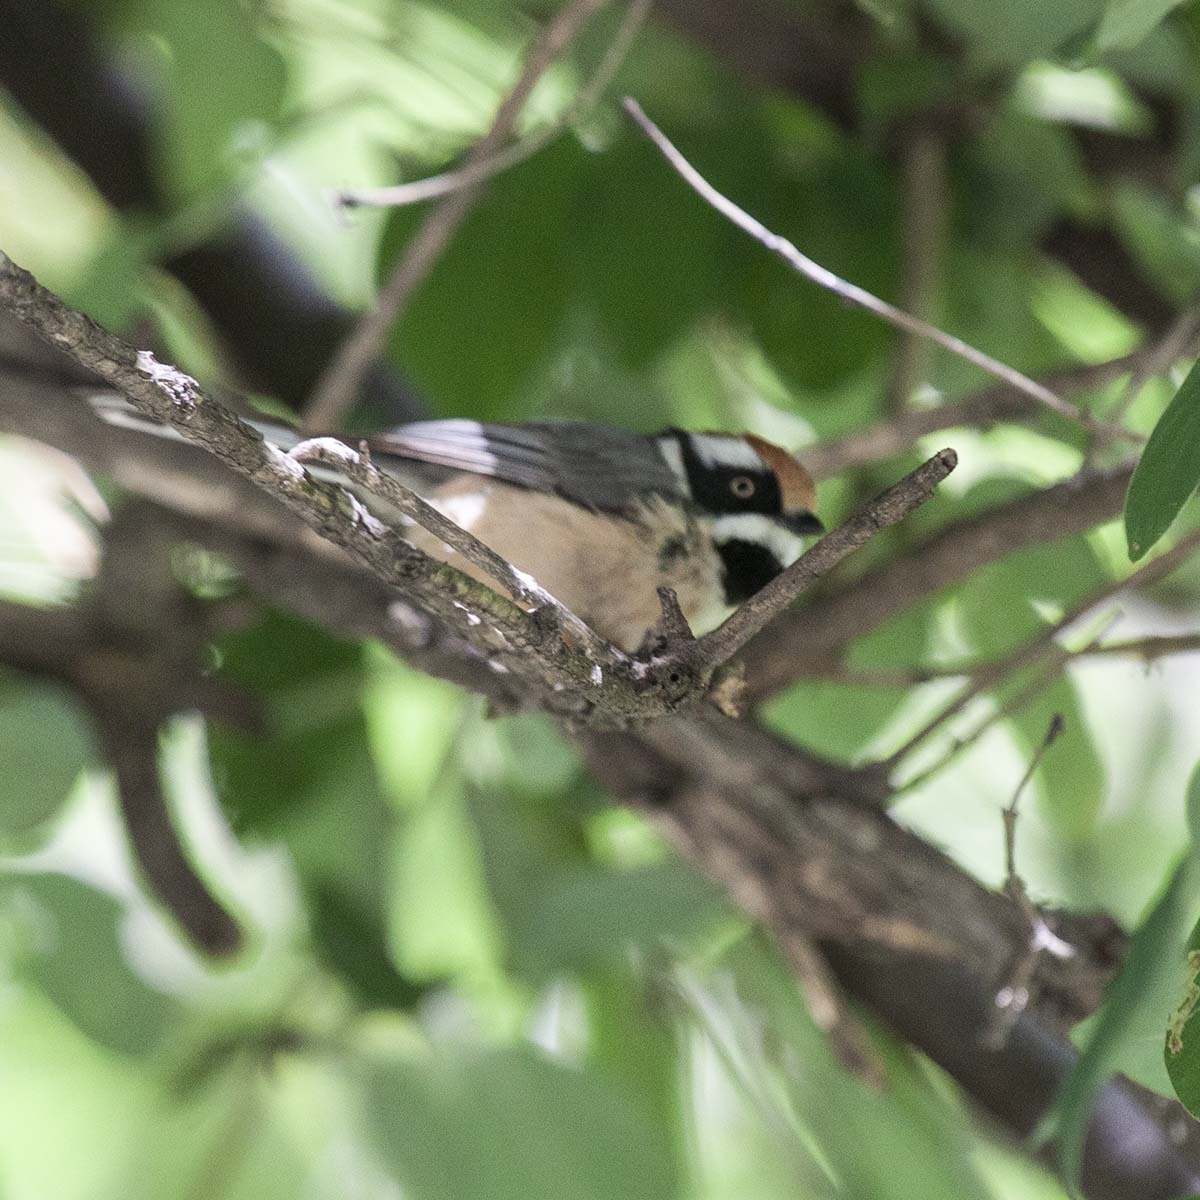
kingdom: Animalia
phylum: Chordata
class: Aves
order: Passeriformes
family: Aegithalidae
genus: Aegithalos
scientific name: Aegithalos concinnus
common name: Black-throated bushtit
